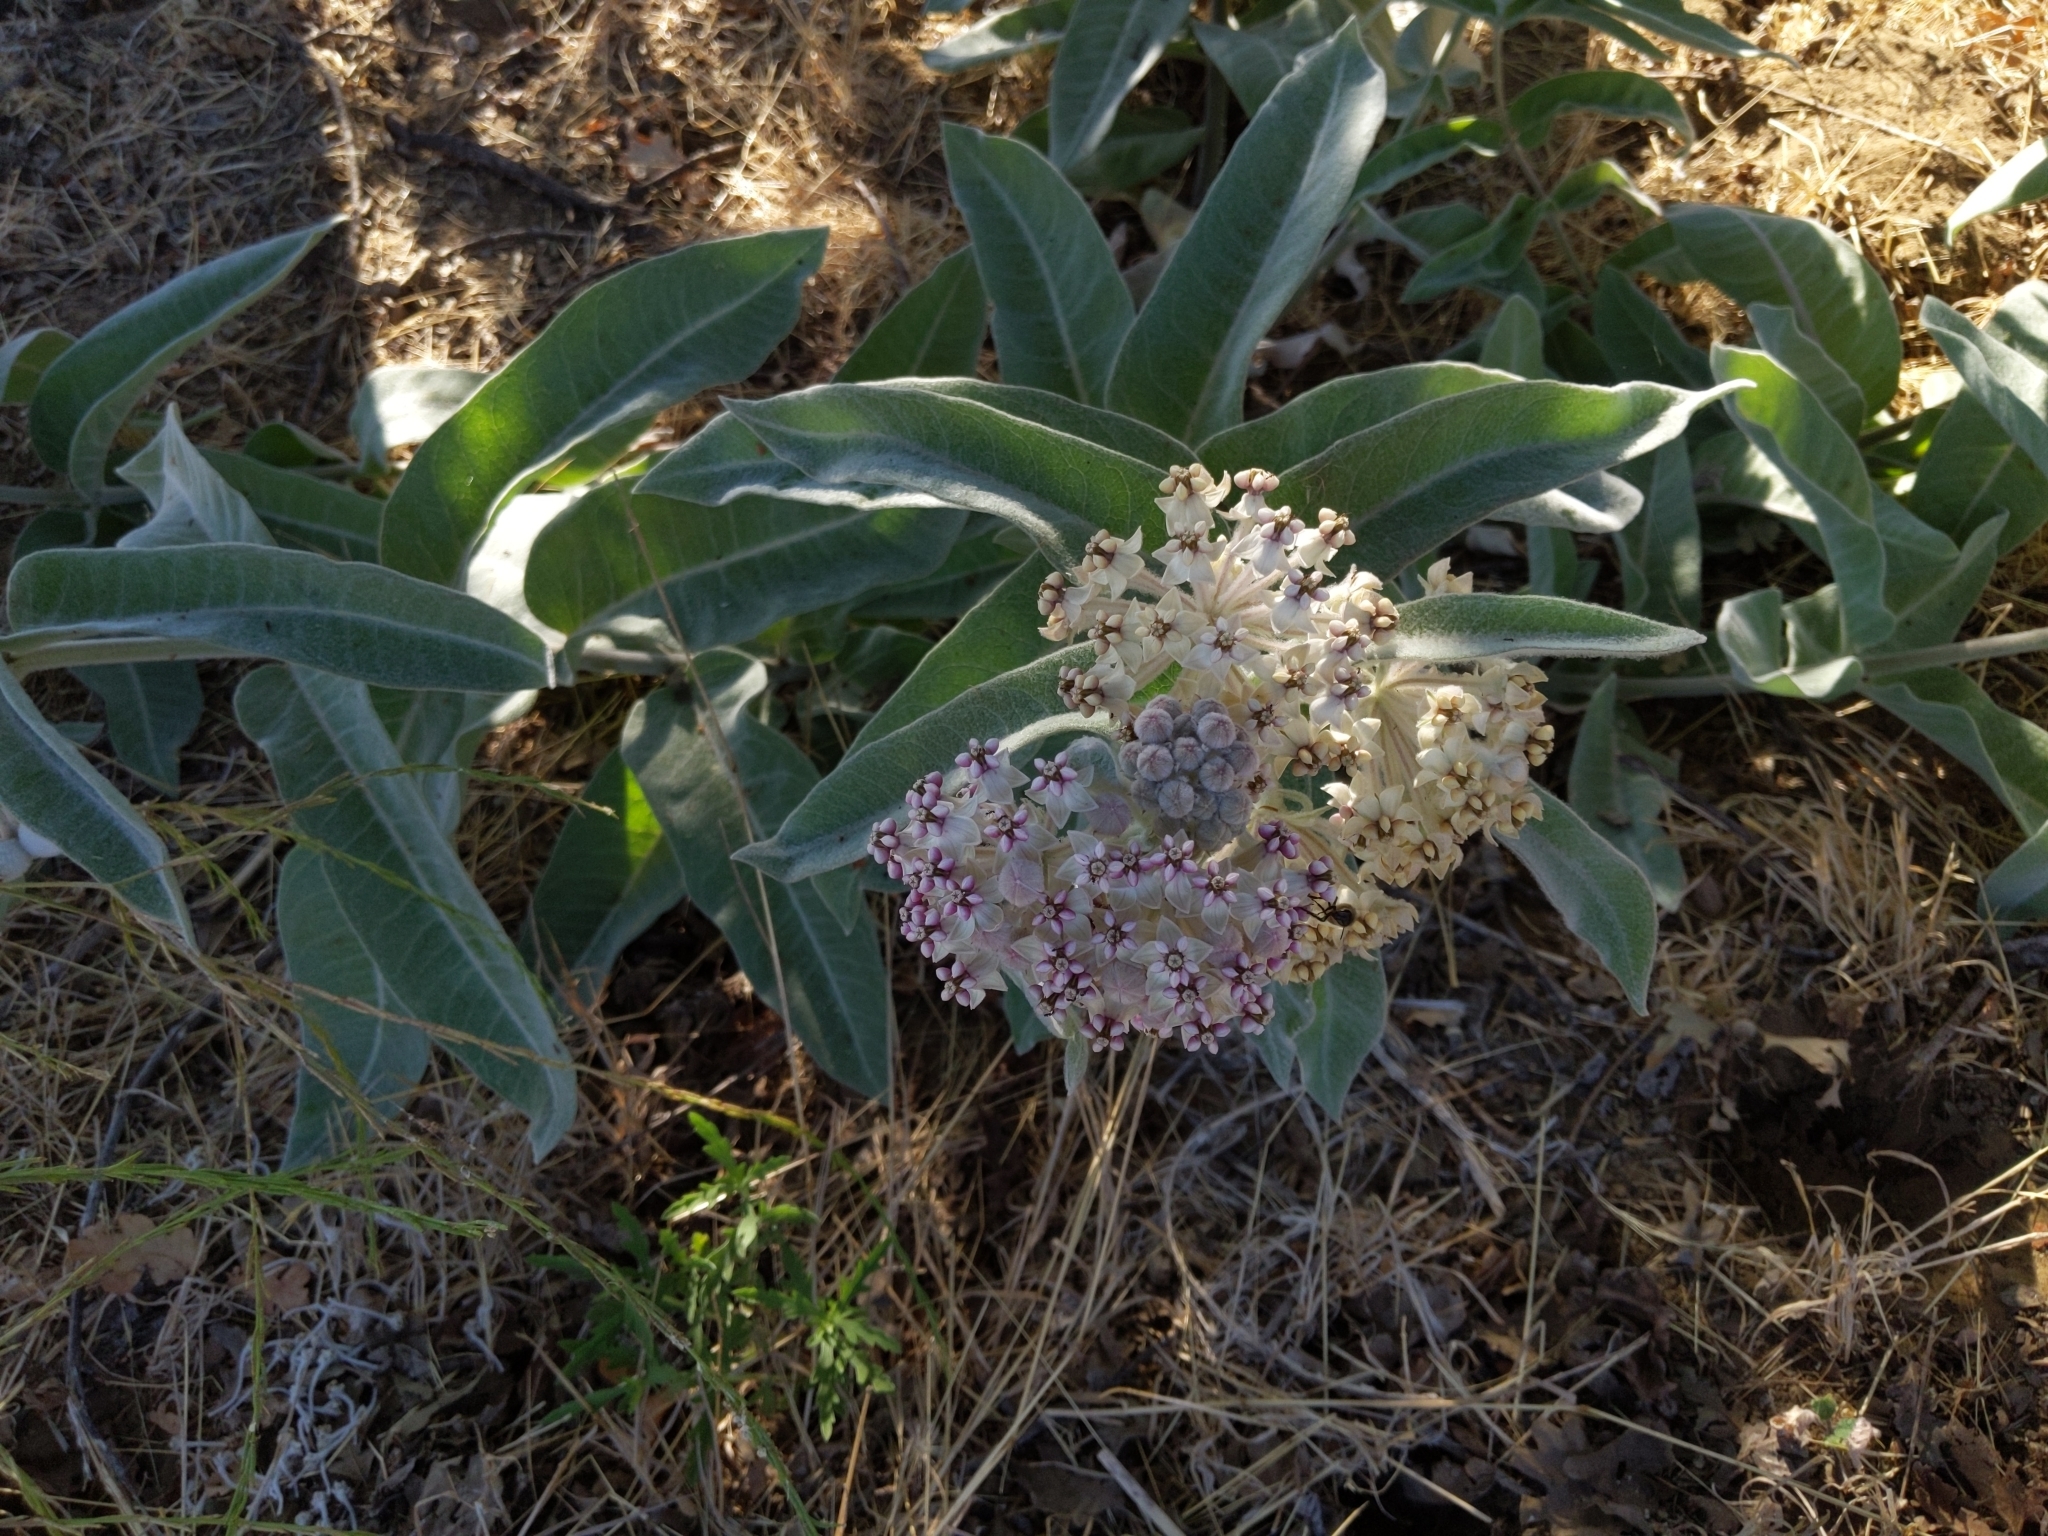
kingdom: Plantae
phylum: Tracheophyta
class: Magnoliopsida
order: Gentianales
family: Apocynaceae
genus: Asclepias
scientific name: Asclepias eriocarpa
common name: Indian milkweed
